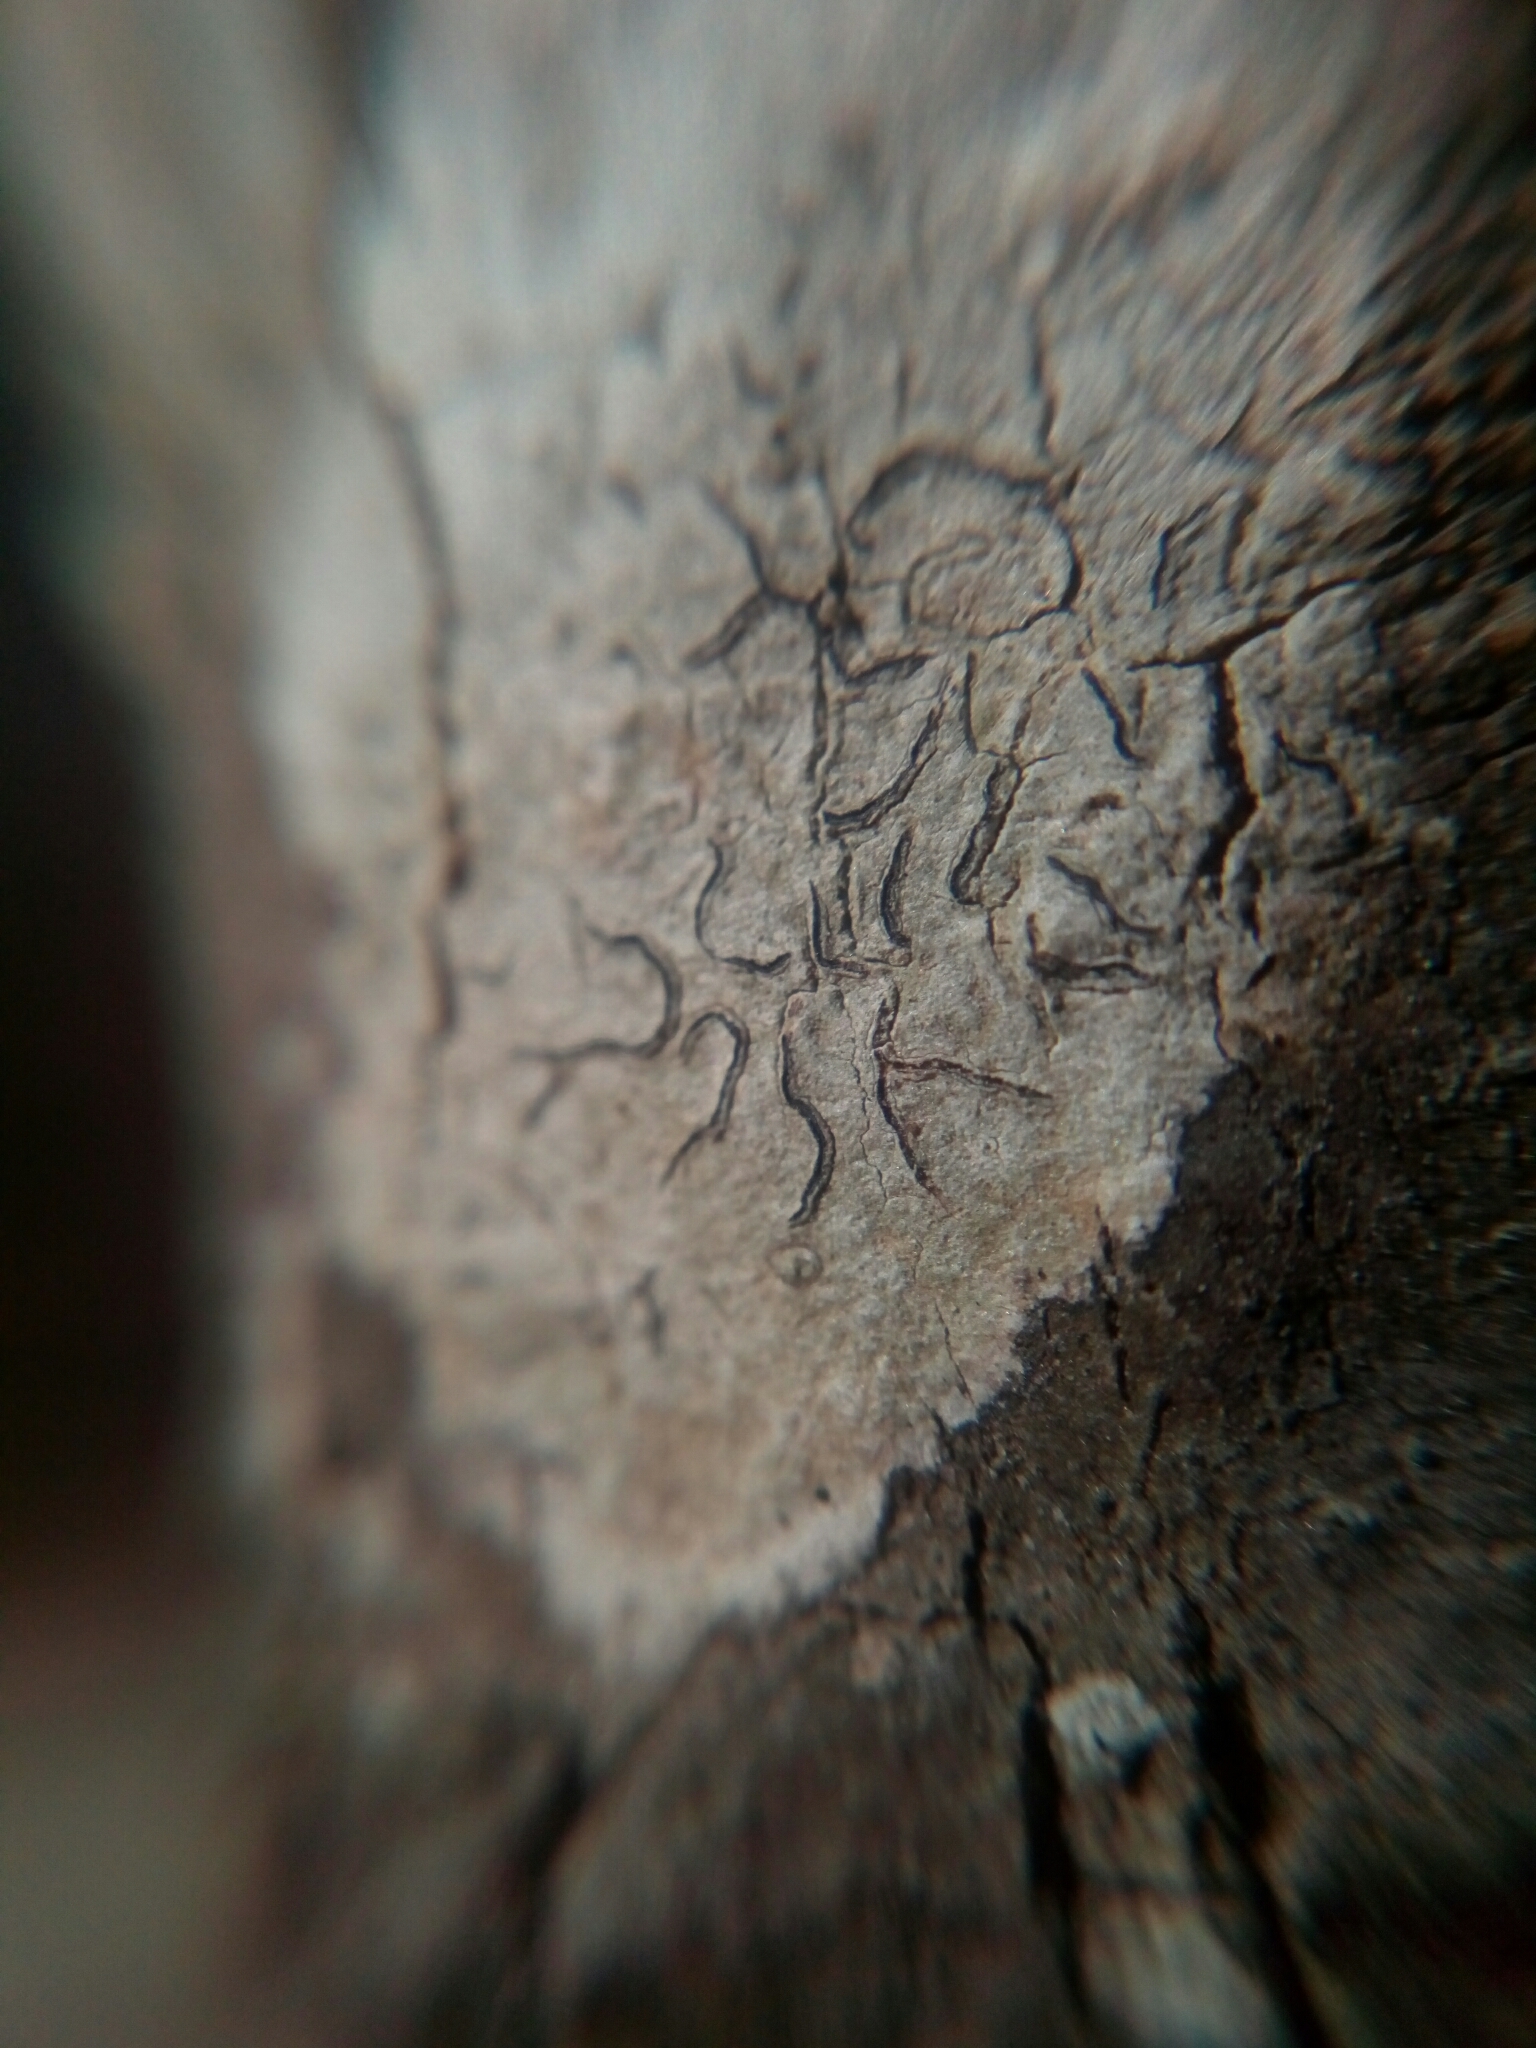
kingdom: Fungi
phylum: Ascomycota
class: Lecanoromycetes
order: Ostropales
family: Graphidaceae
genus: Graphis
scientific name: Graphis scripta
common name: Script lichen
